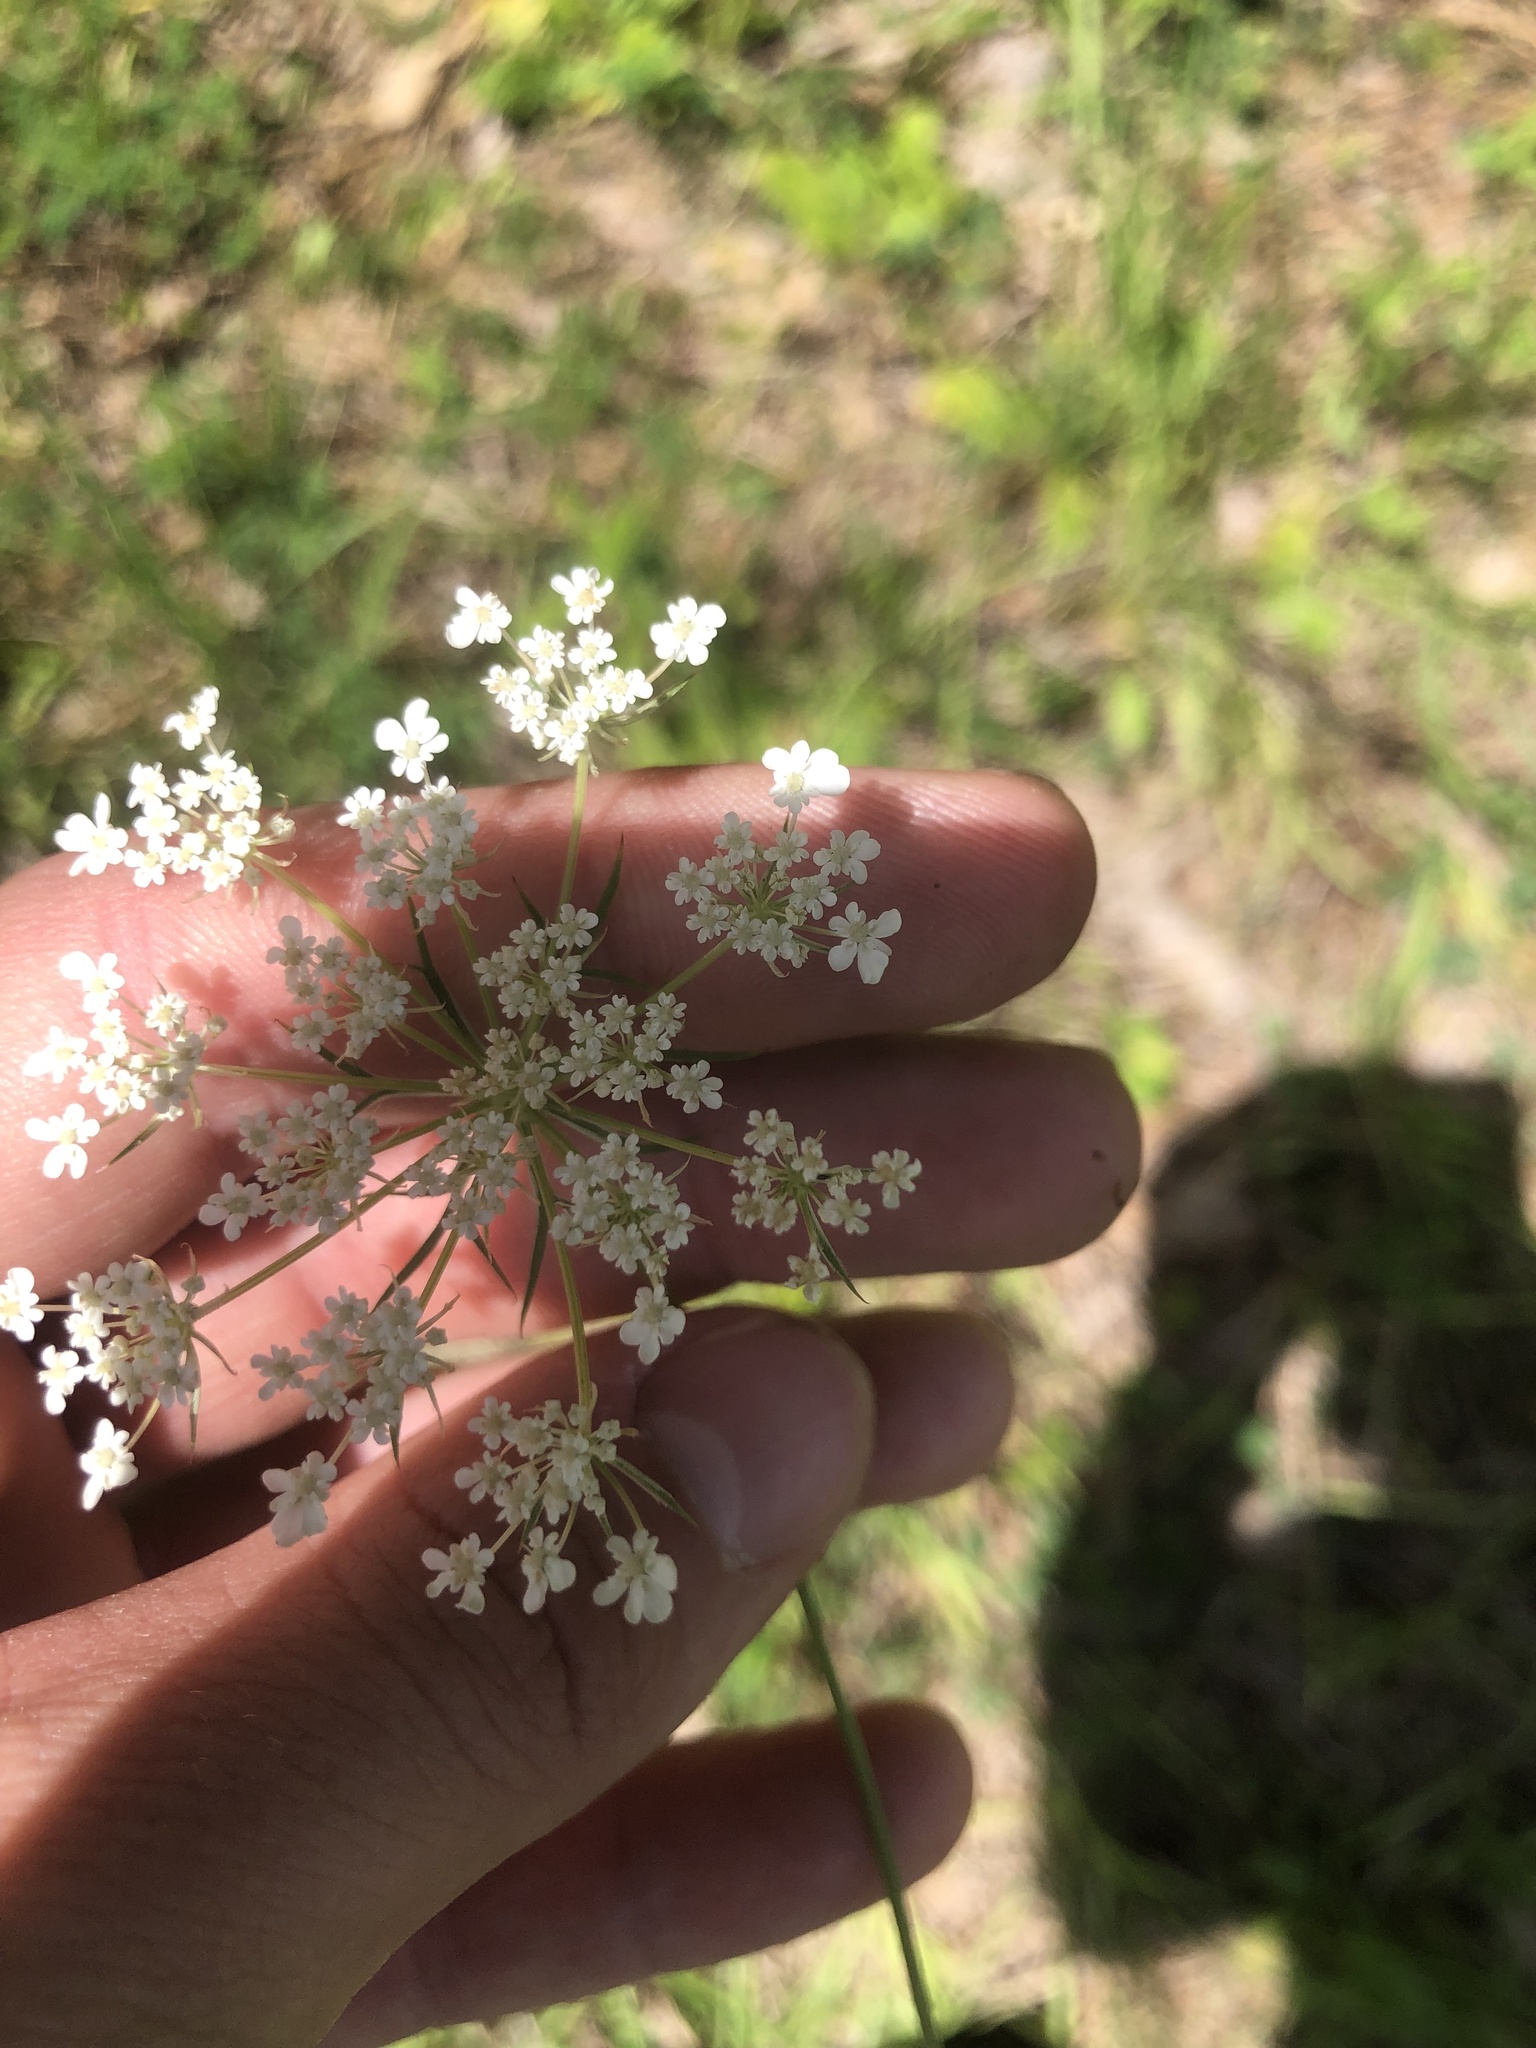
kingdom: Plantae
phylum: Tracheophyta
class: Magnoliopsida
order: Apiales
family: Apiaceae
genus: Daucus
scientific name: Daucus carota
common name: Wild carrot
